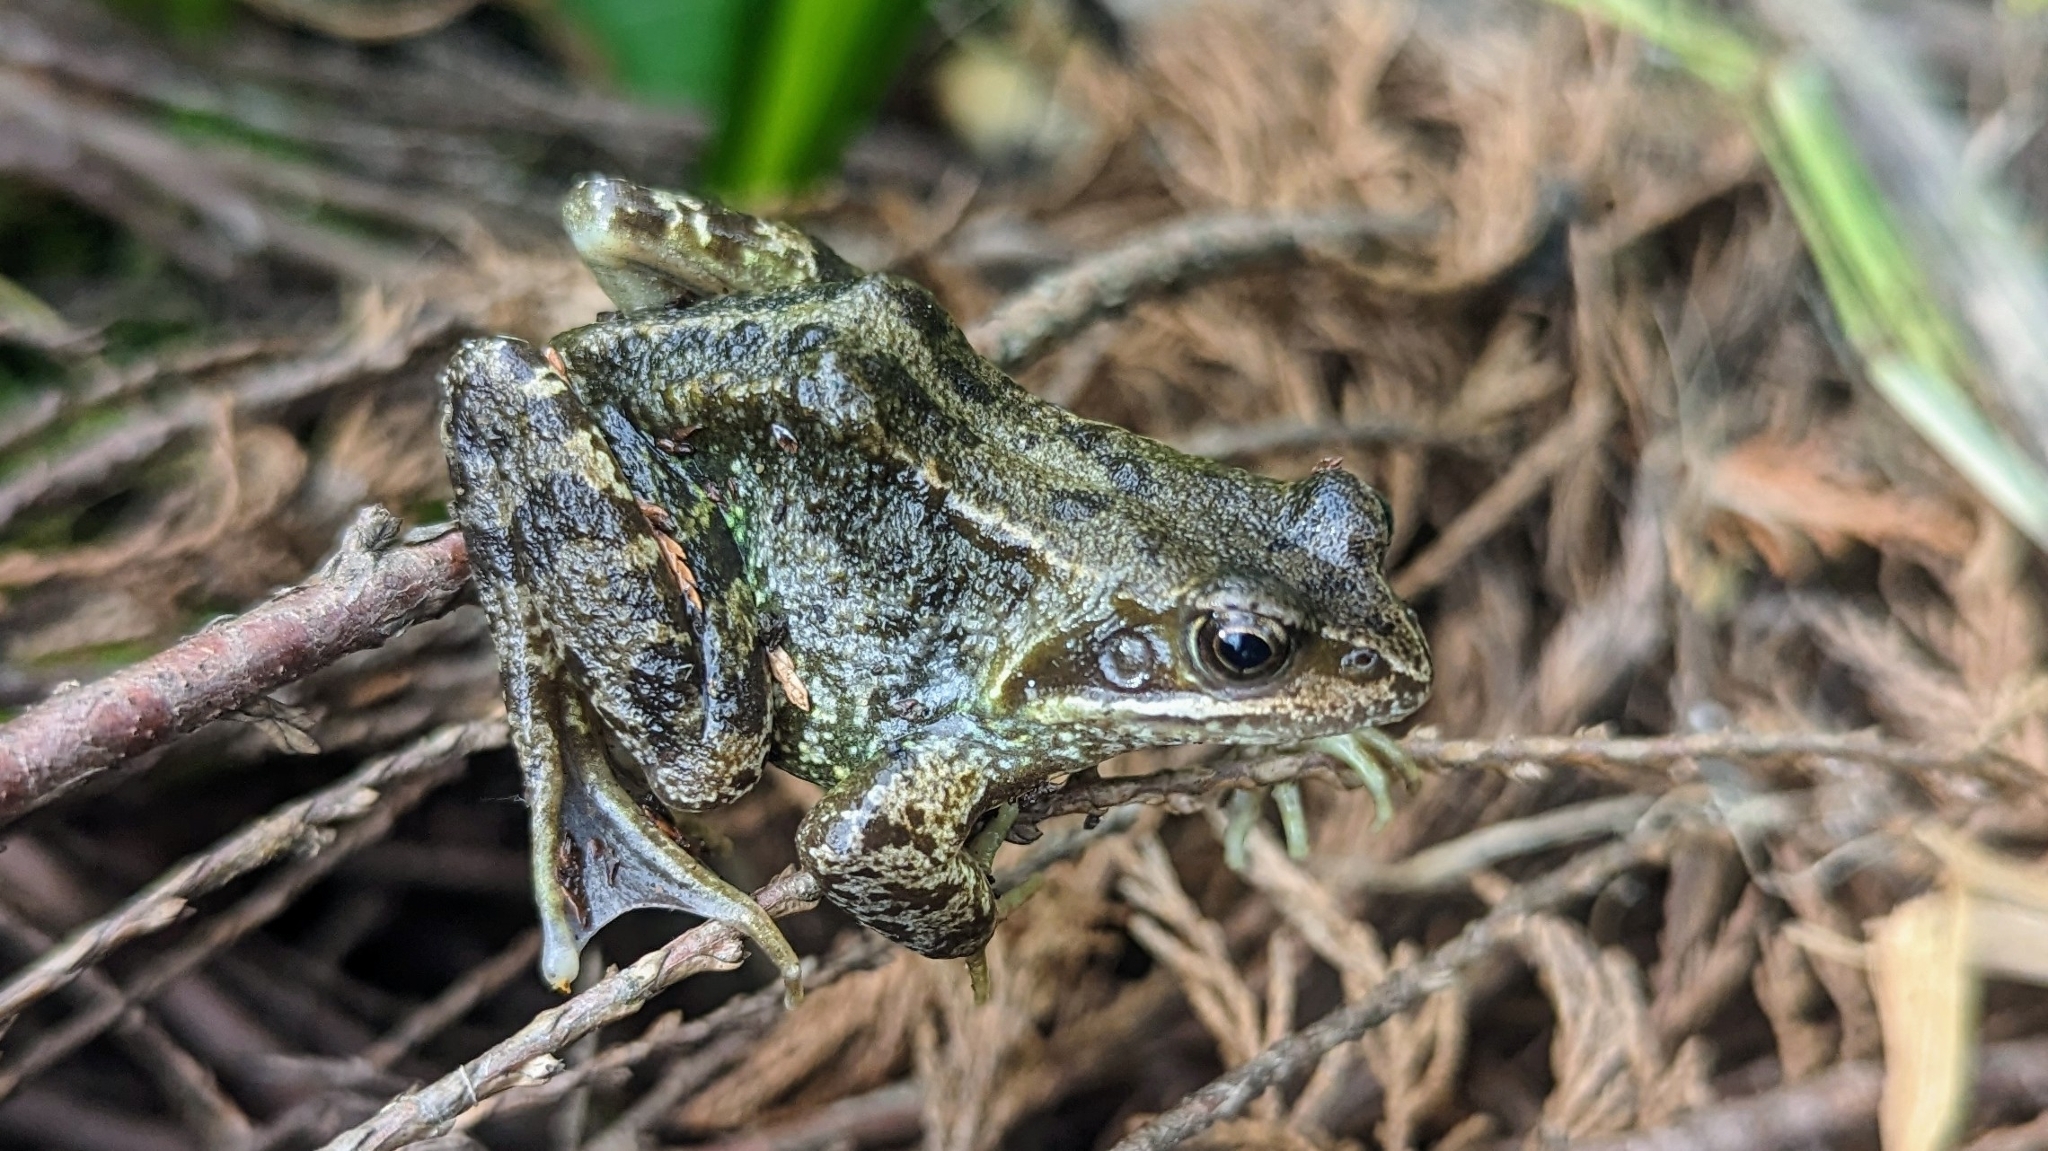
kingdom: Animalia
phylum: Chordata
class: Amphibia
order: Anura
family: Ranidae
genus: Rana
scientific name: Rana temporaria
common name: Common frog
